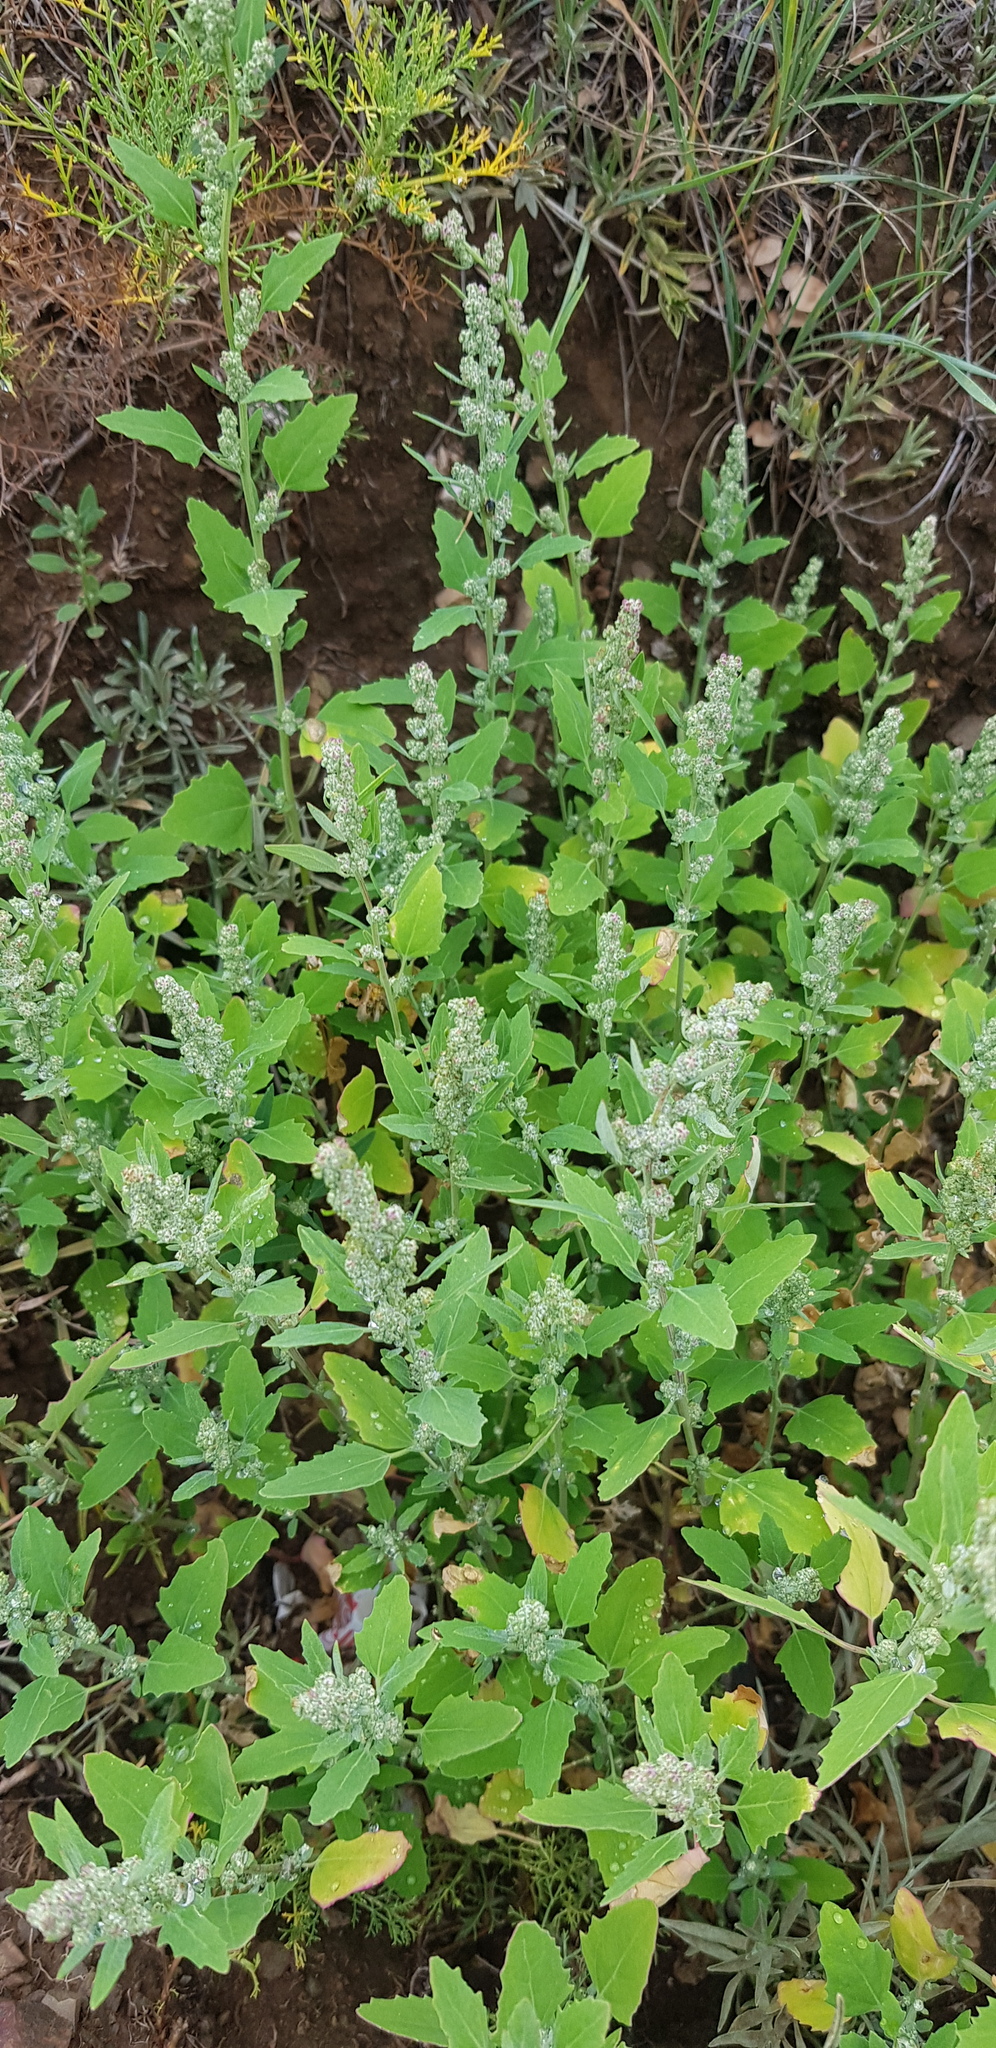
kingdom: Plantae
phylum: Tracheophyta
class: Magnoliopsida
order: Caryophyllales
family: Amaranthaceae
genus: Chenopodium
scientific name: Chenopodium album
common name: Fat-hen
